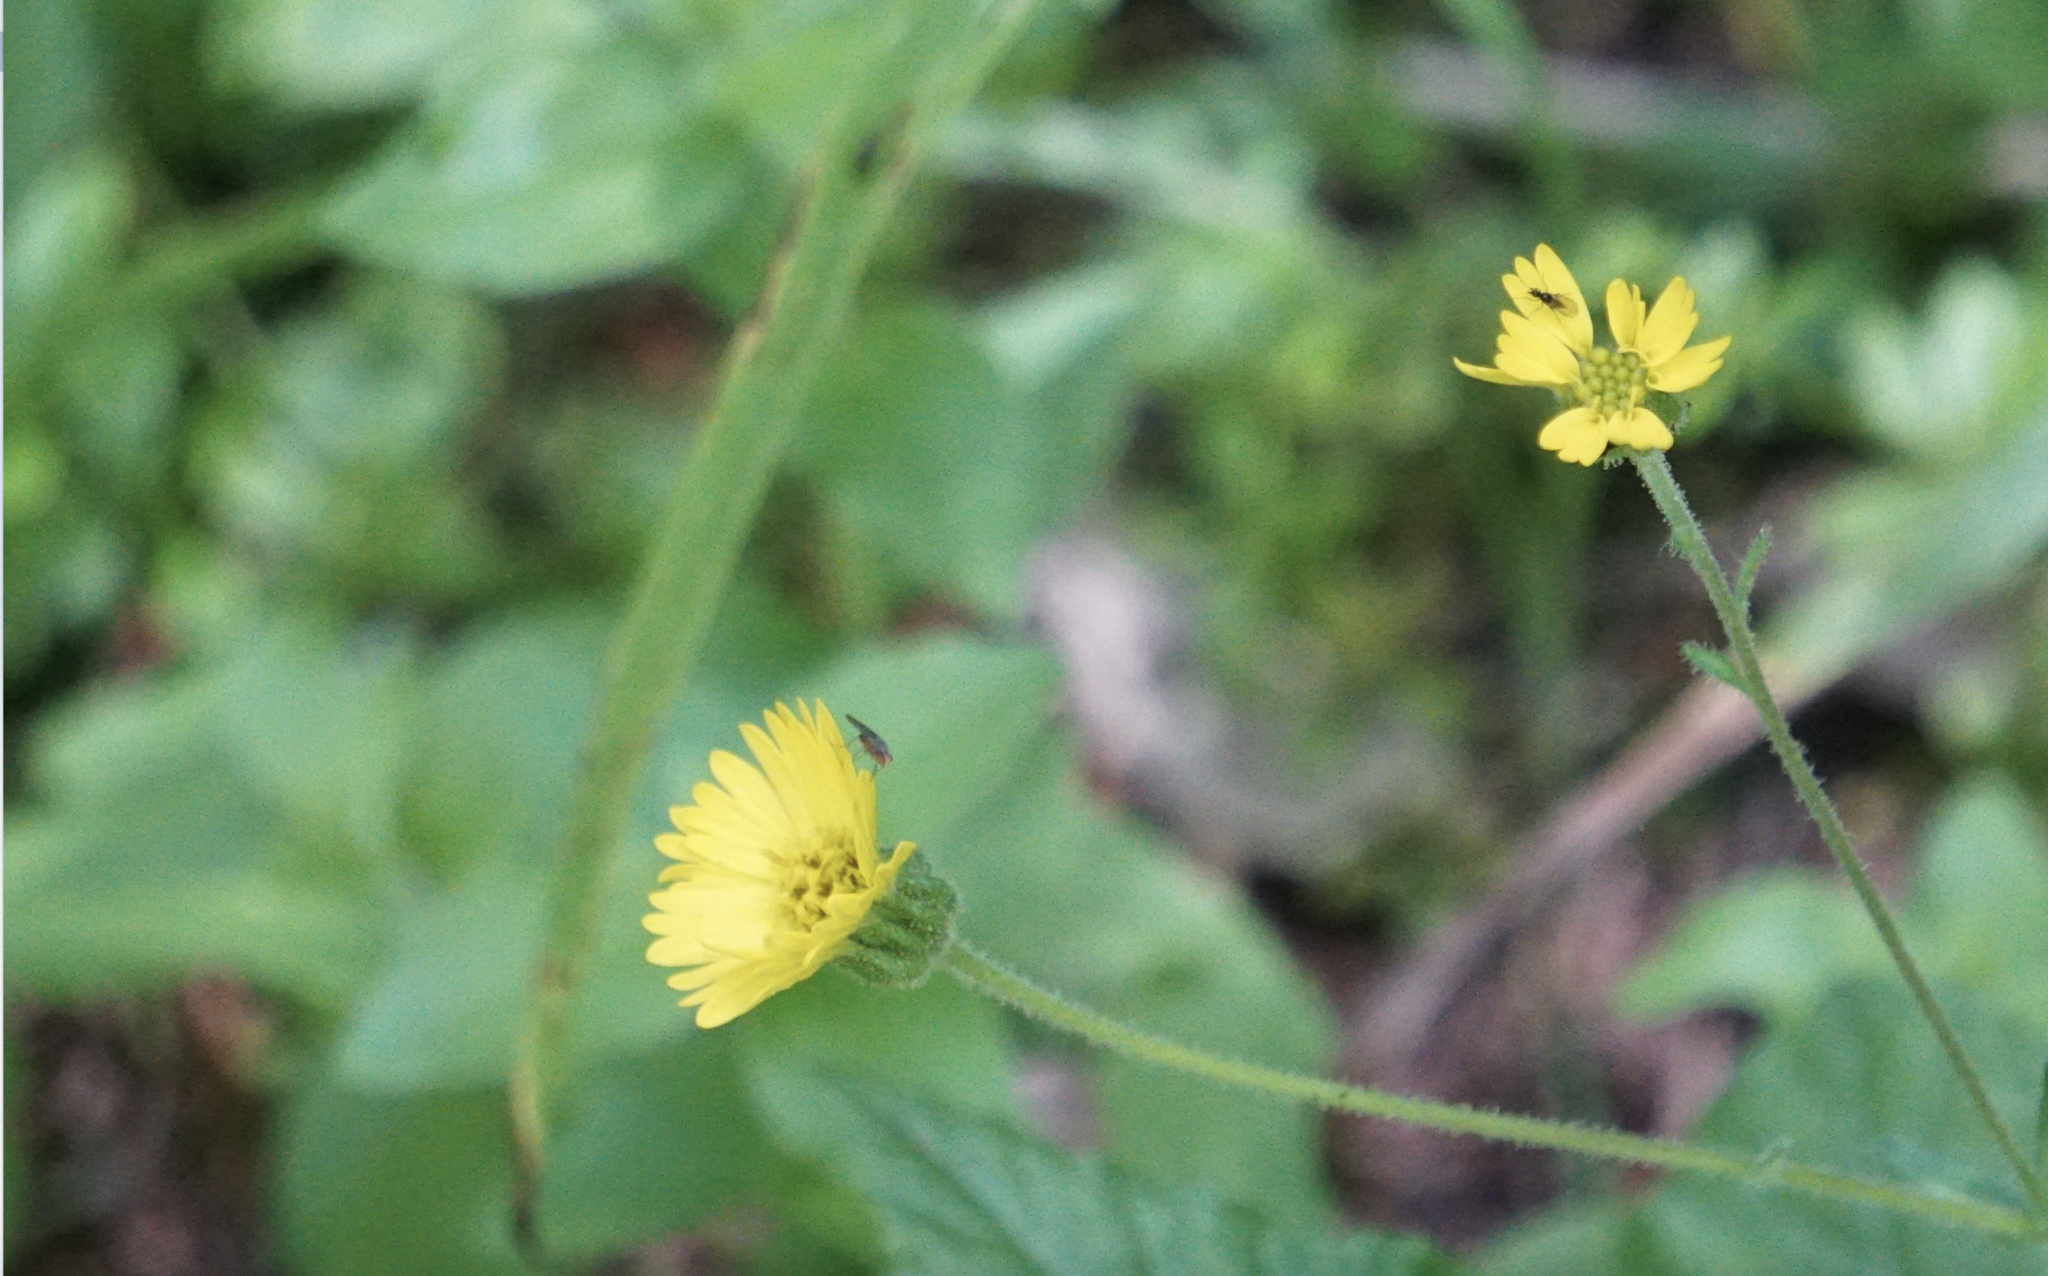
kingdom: Plantae
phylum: Tracheophyta
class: Magnoliopsida
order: Asterales
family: Asteraceae
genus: Anisocarpus
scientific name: Anisocarpus madioides
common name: Woodland madia
